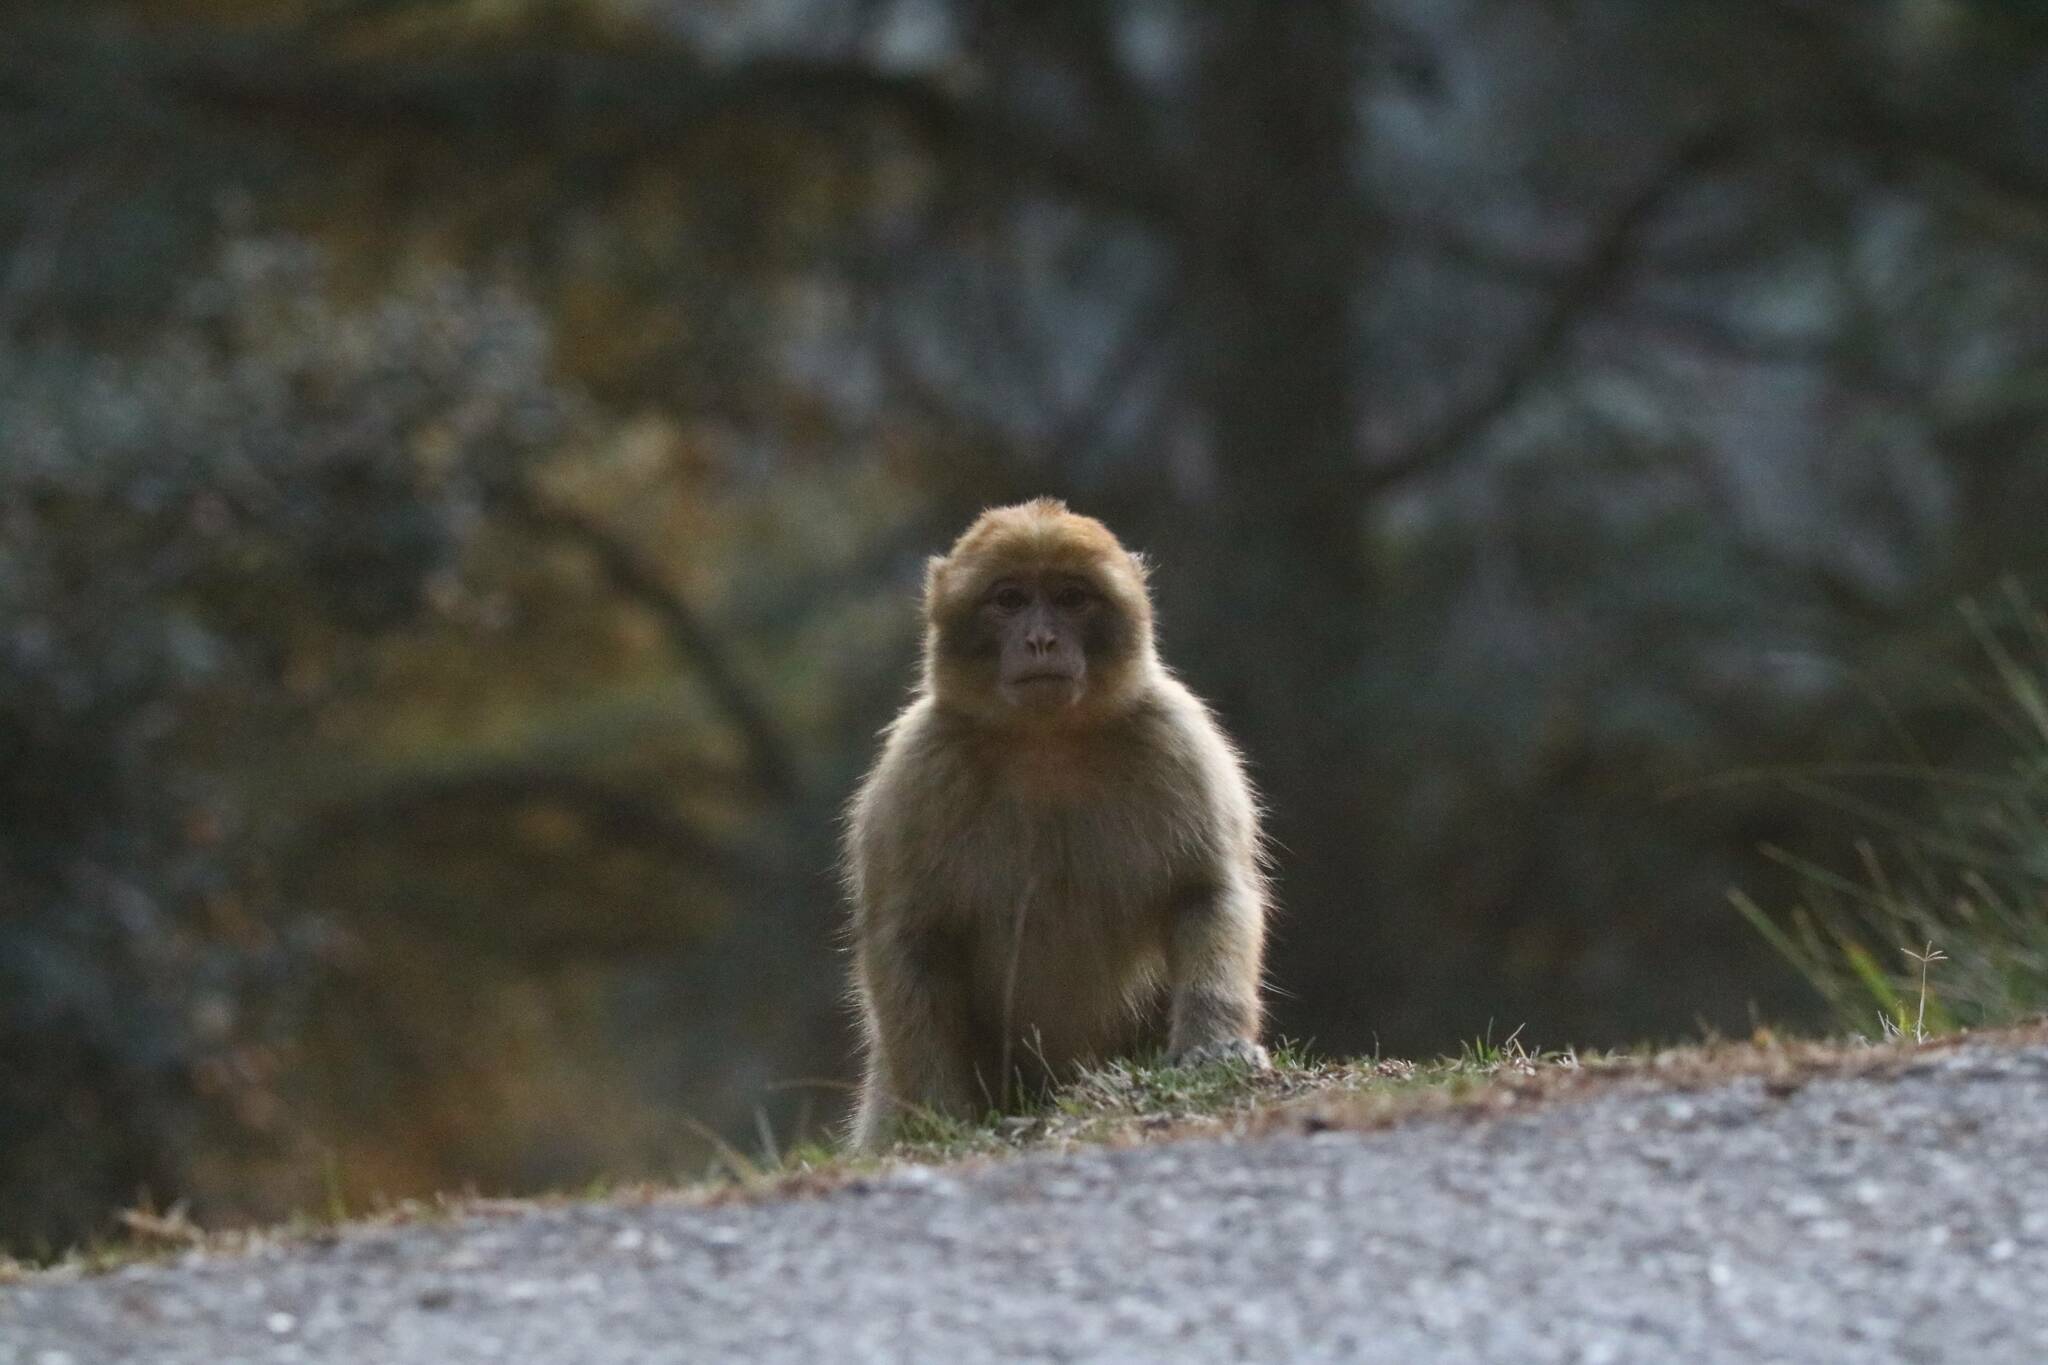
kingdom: Animalia
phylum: Chordata
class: Mammalia
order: Primates
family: Cercopithecidae
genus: Macaca
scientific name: Macaca sylvanus
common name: Barbary macaque
